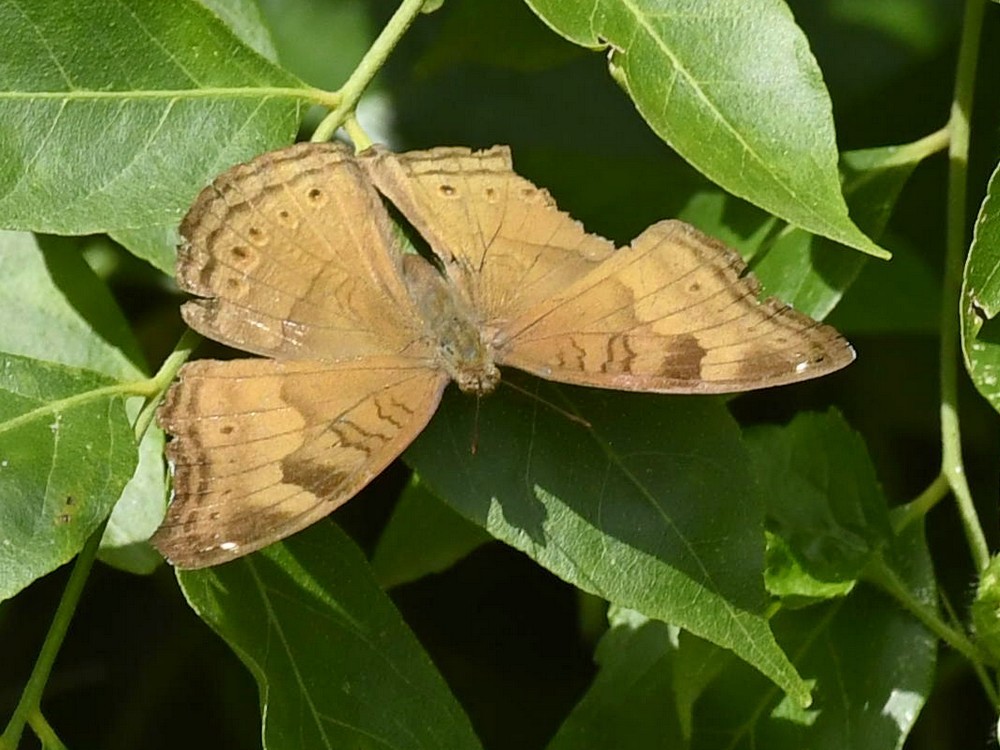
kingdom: Animalia
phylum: Arthropoda
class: Insecta
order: Lepidoptera
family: Nymphalidae
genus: Junonia
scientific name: Junonia iphita
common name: Chocolate pansy
